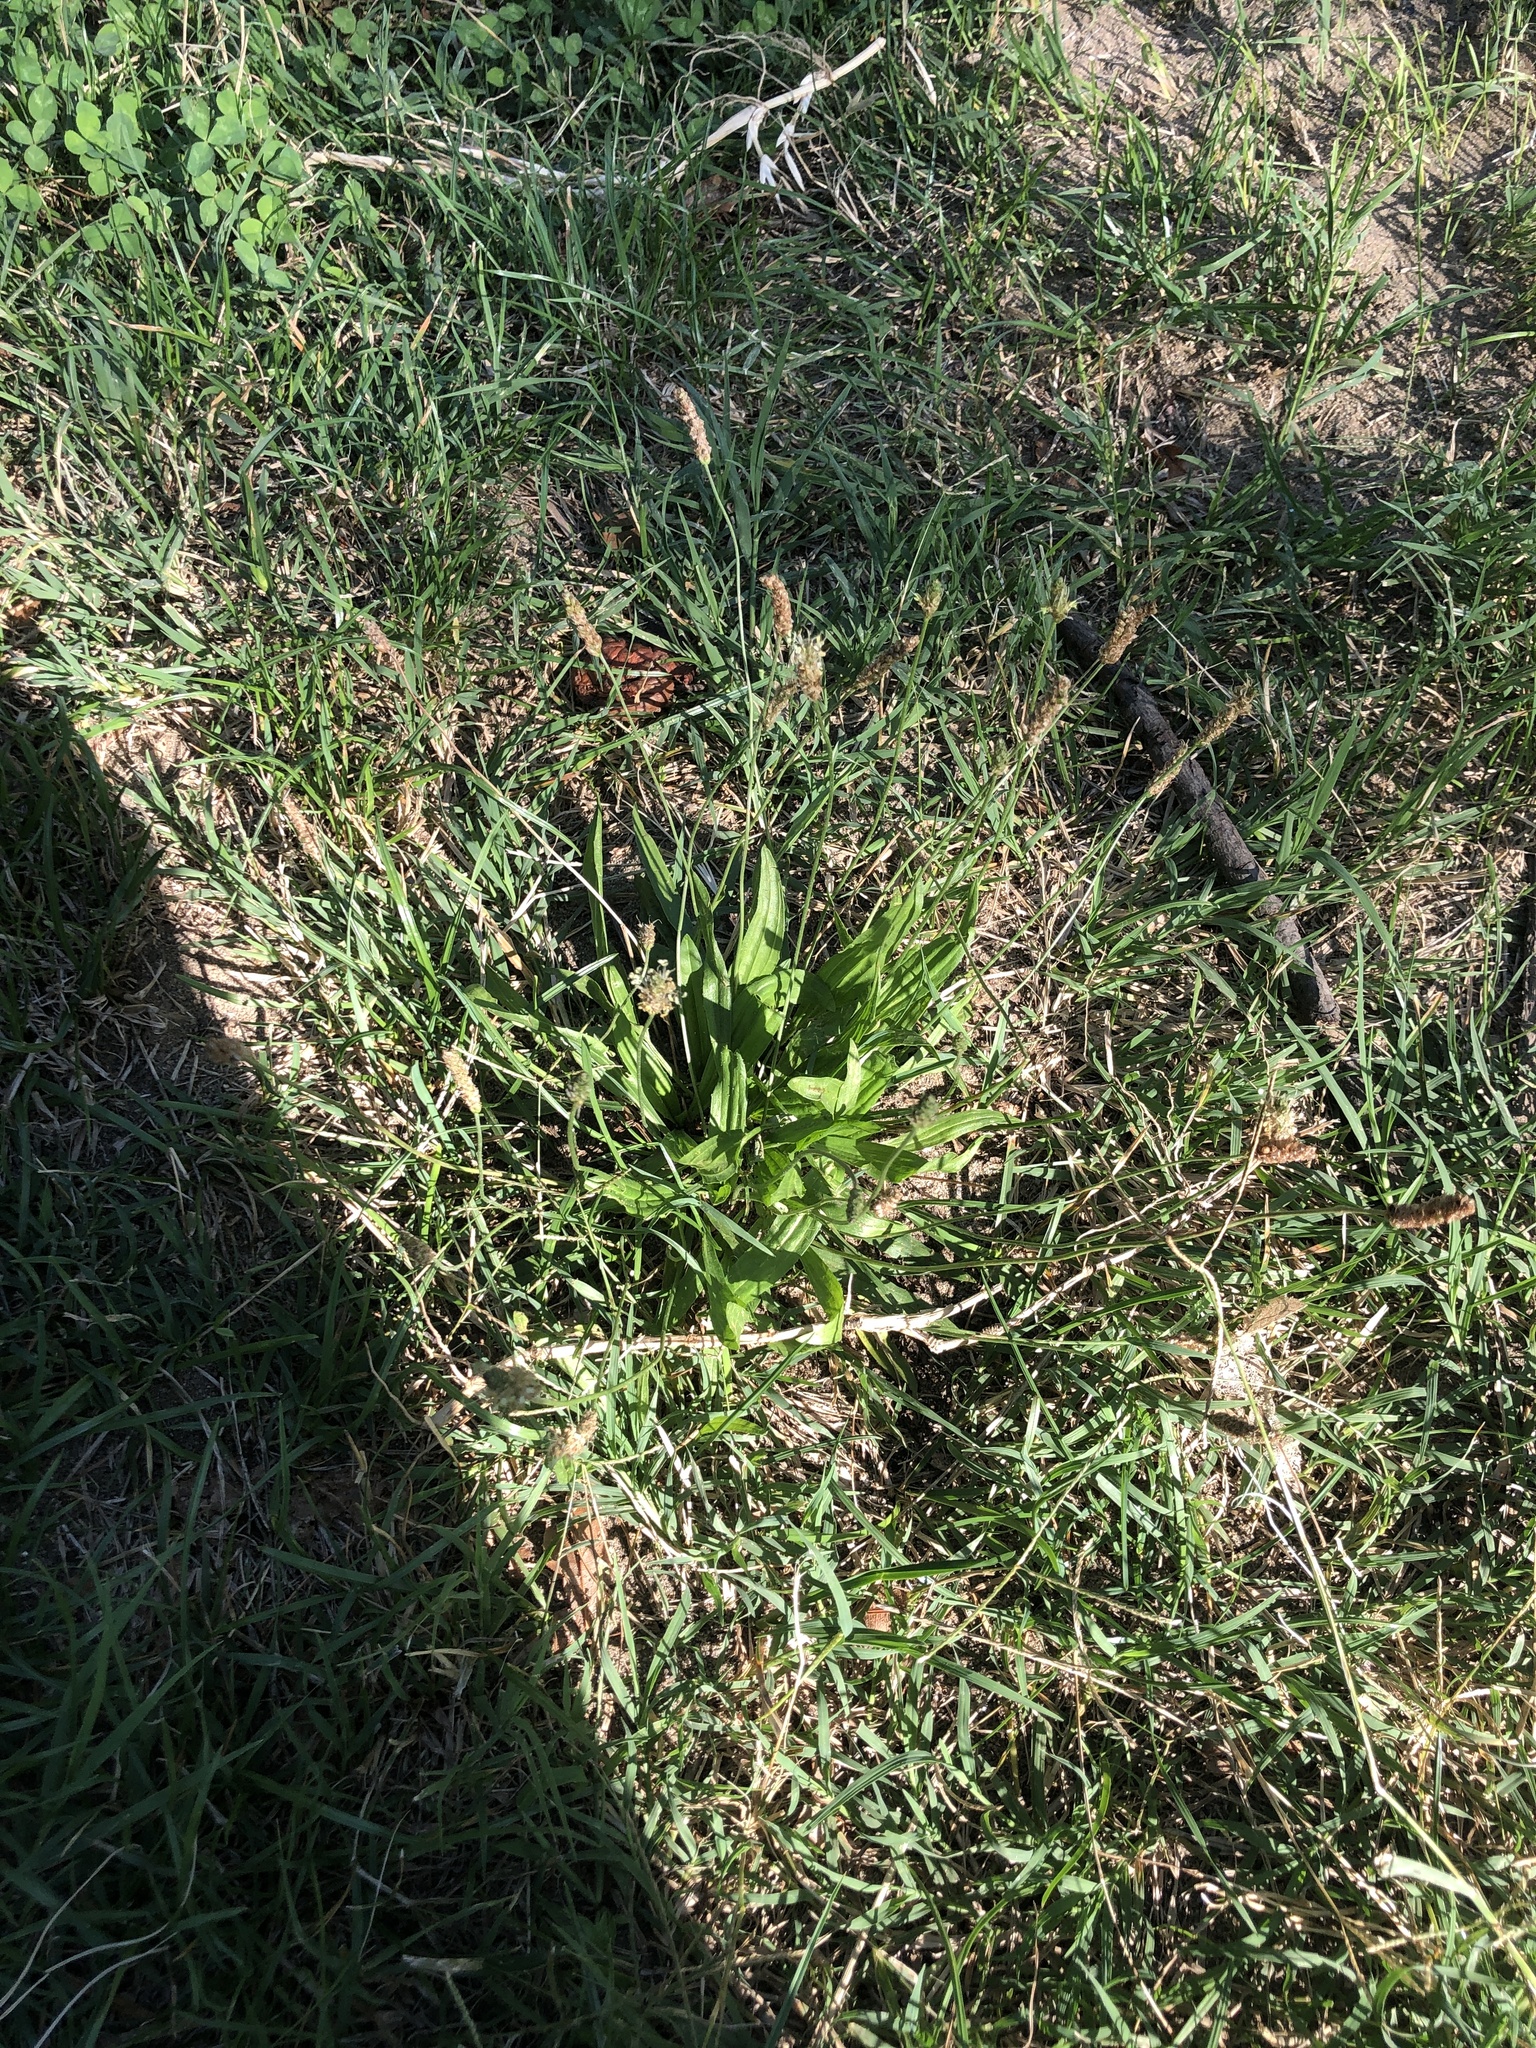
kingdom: Plantae
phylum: Tracheophyta
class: Magnoliopsida
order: Lamiales
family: Plantaginaceae
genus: Plantago
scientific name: Plantago lanceolata
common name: Ribwort plantain
